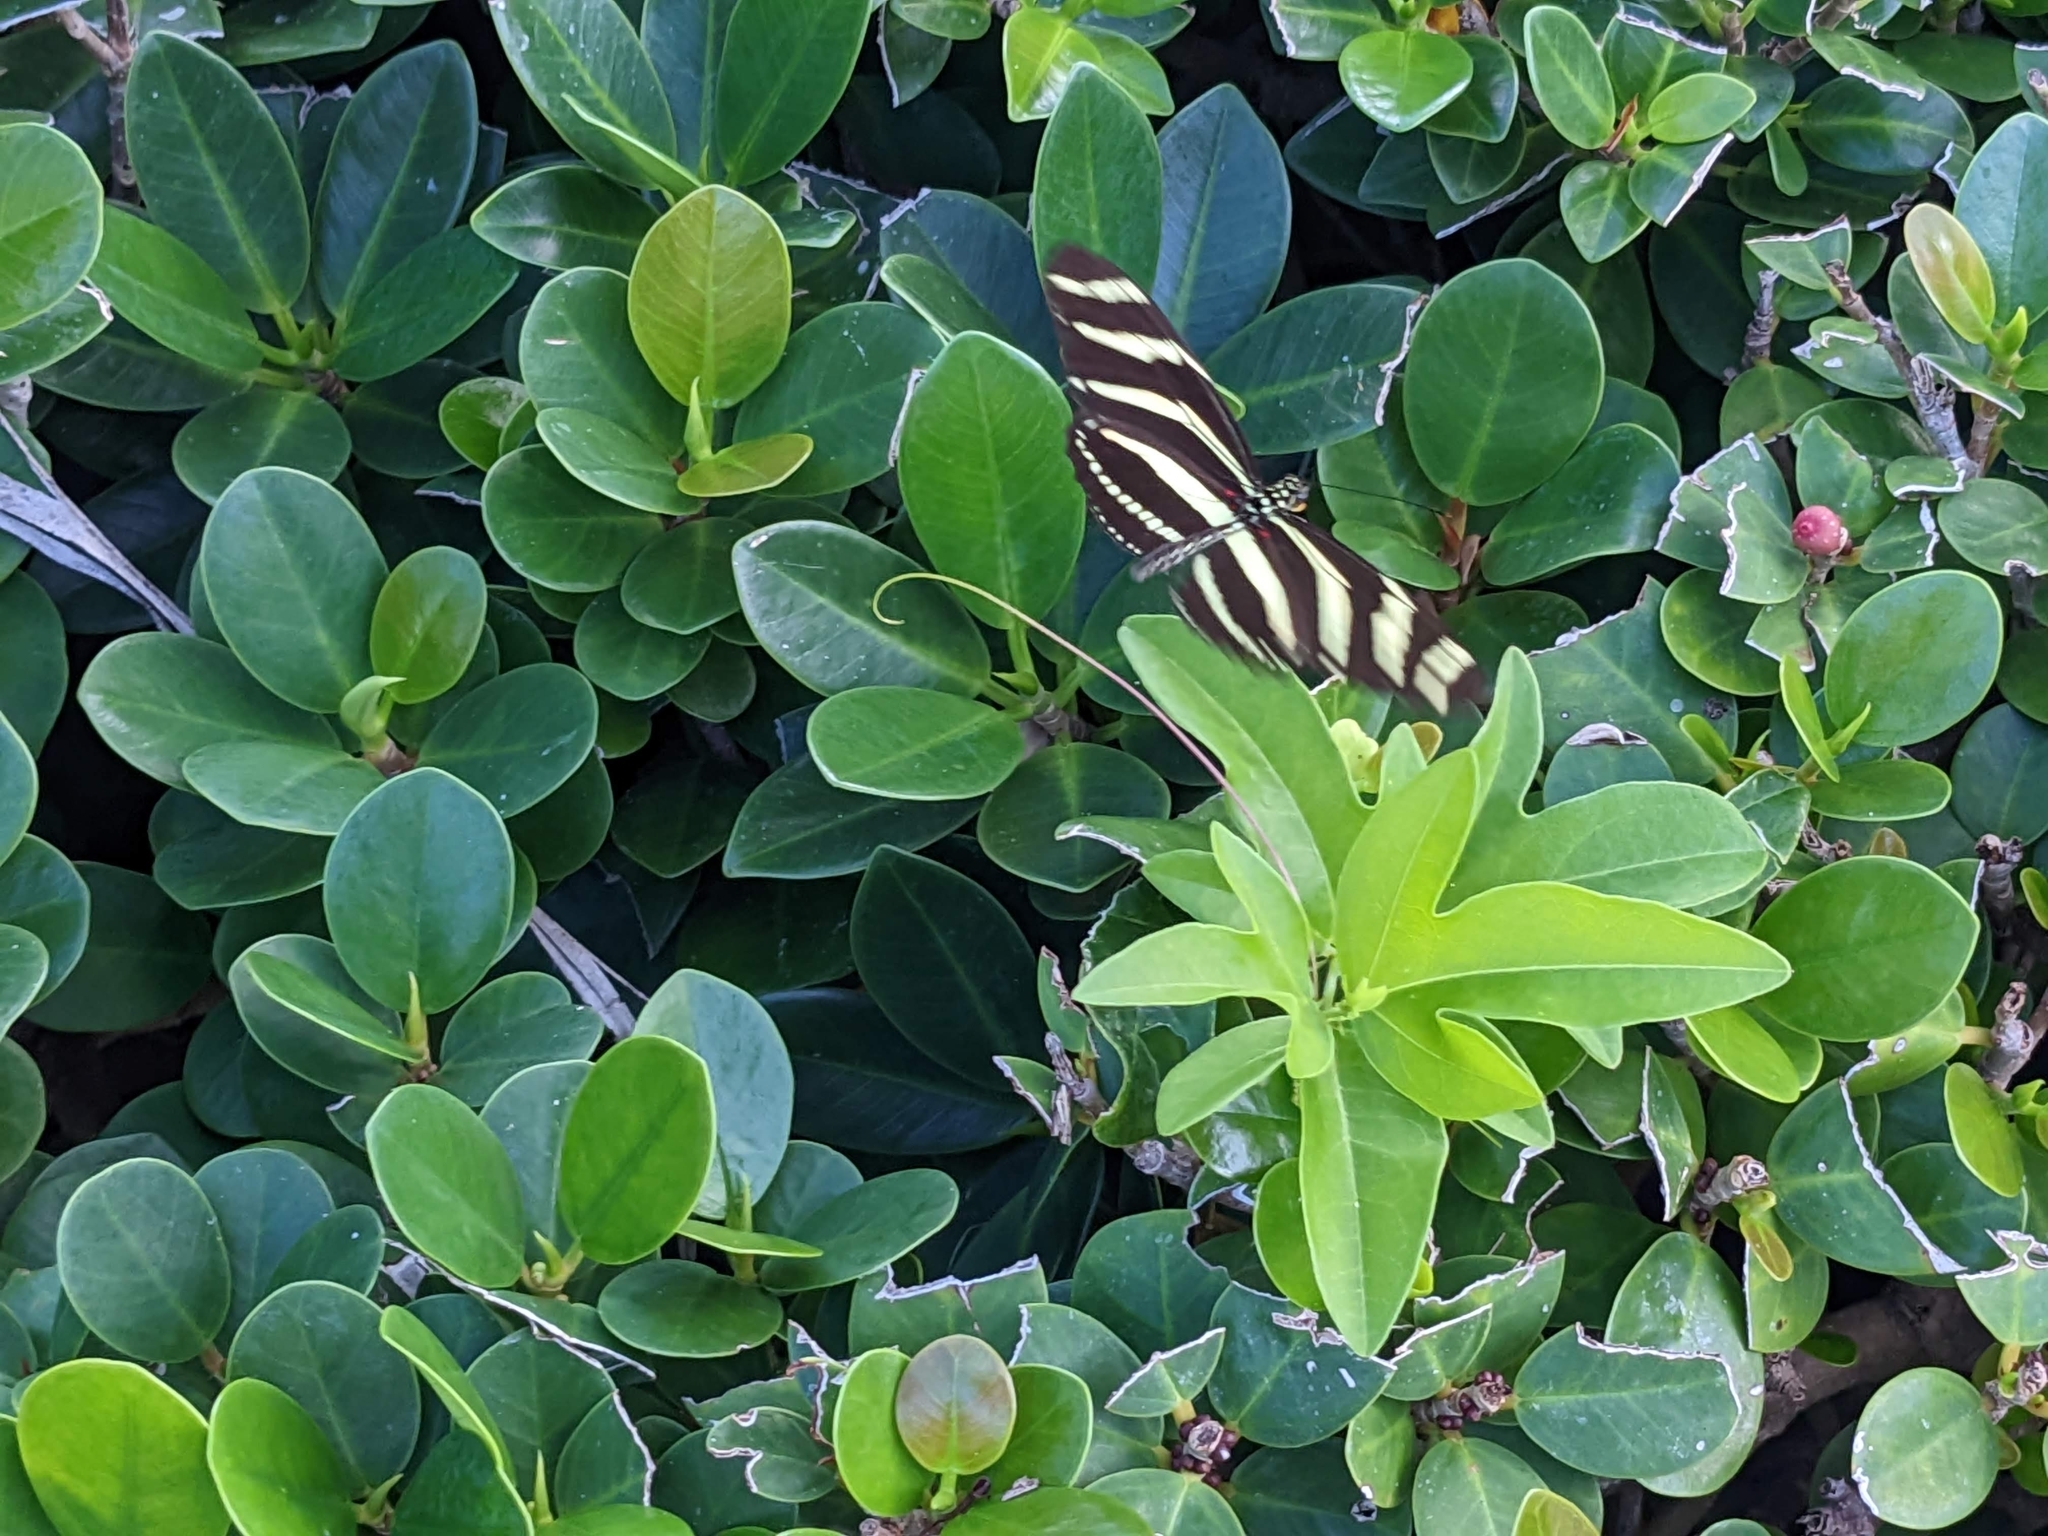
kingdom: Animalia
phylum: Arthropoda
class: Insecta
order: Lepidoptera
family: Nymphalidae
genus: Heliconius
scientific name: Heliconius charithonia
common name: Zebra long wing
